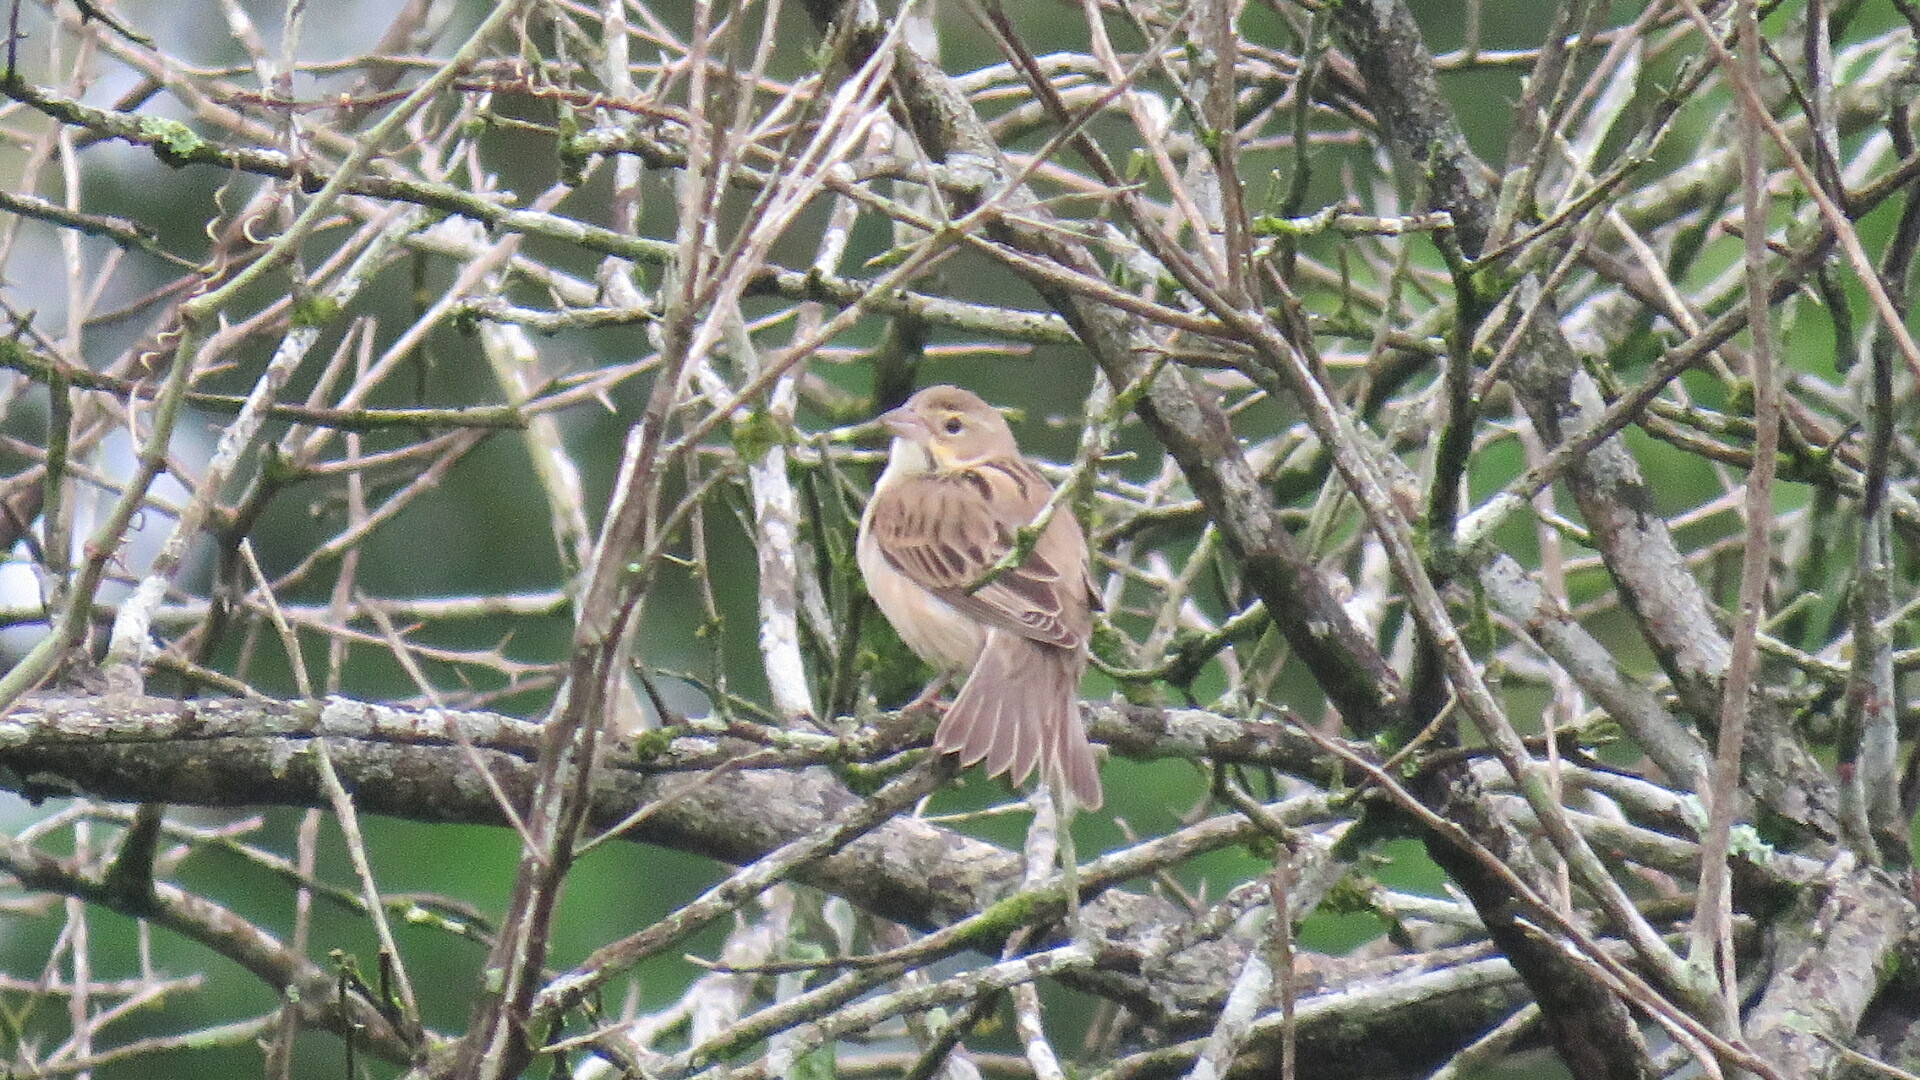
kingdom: Animalia
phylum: Chordata
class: Aves
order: Passeriformes
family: Cardinalidae
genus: Spiza
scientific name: Spiza americana
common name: Dickcissel
